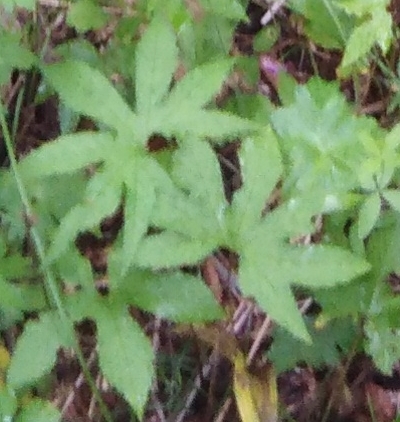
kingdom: Plantae
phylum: Tracheophyta
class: Magnoliopsida
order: Rosales
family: Rosaceae
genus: Filipendula
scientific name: Filipendula digitata
